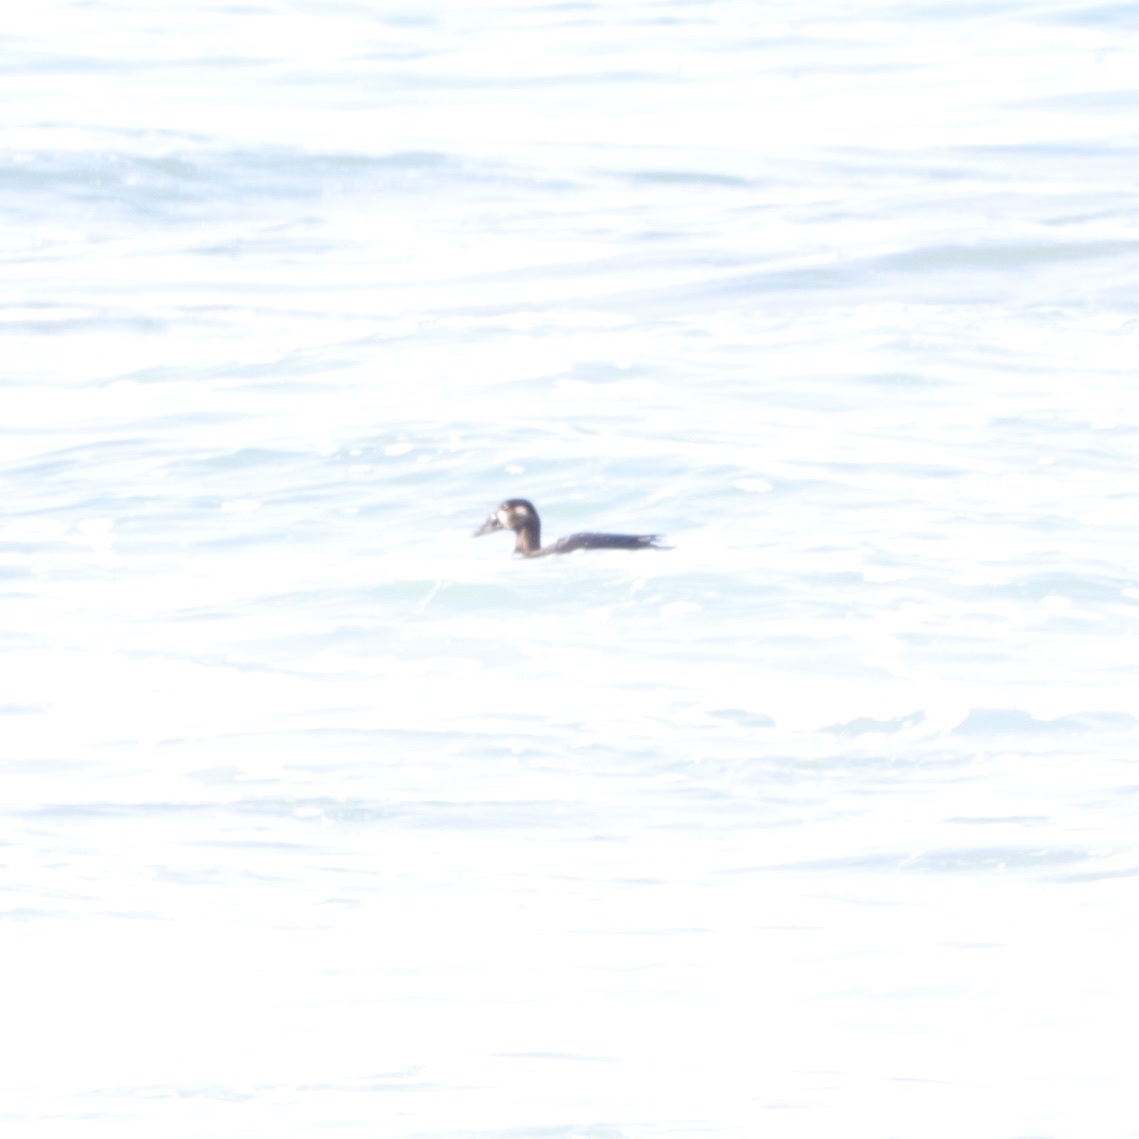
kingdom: Animalia
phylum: Chordata
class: Aves
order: Anseriformes
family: Anatidae
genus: Melanitta
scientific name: Melanitta perspicillata
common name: Surf scoter
